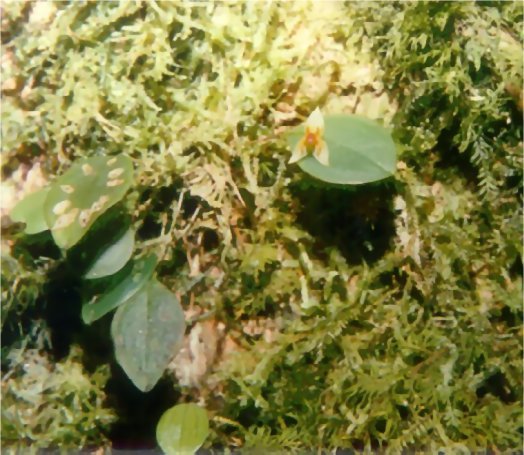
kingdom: Plantae
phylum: Tracheophyta
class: Liliopsida
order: Asparagales
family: Orchidaceae
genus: Lepanthes
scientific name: Lepanthes falx-bellica
